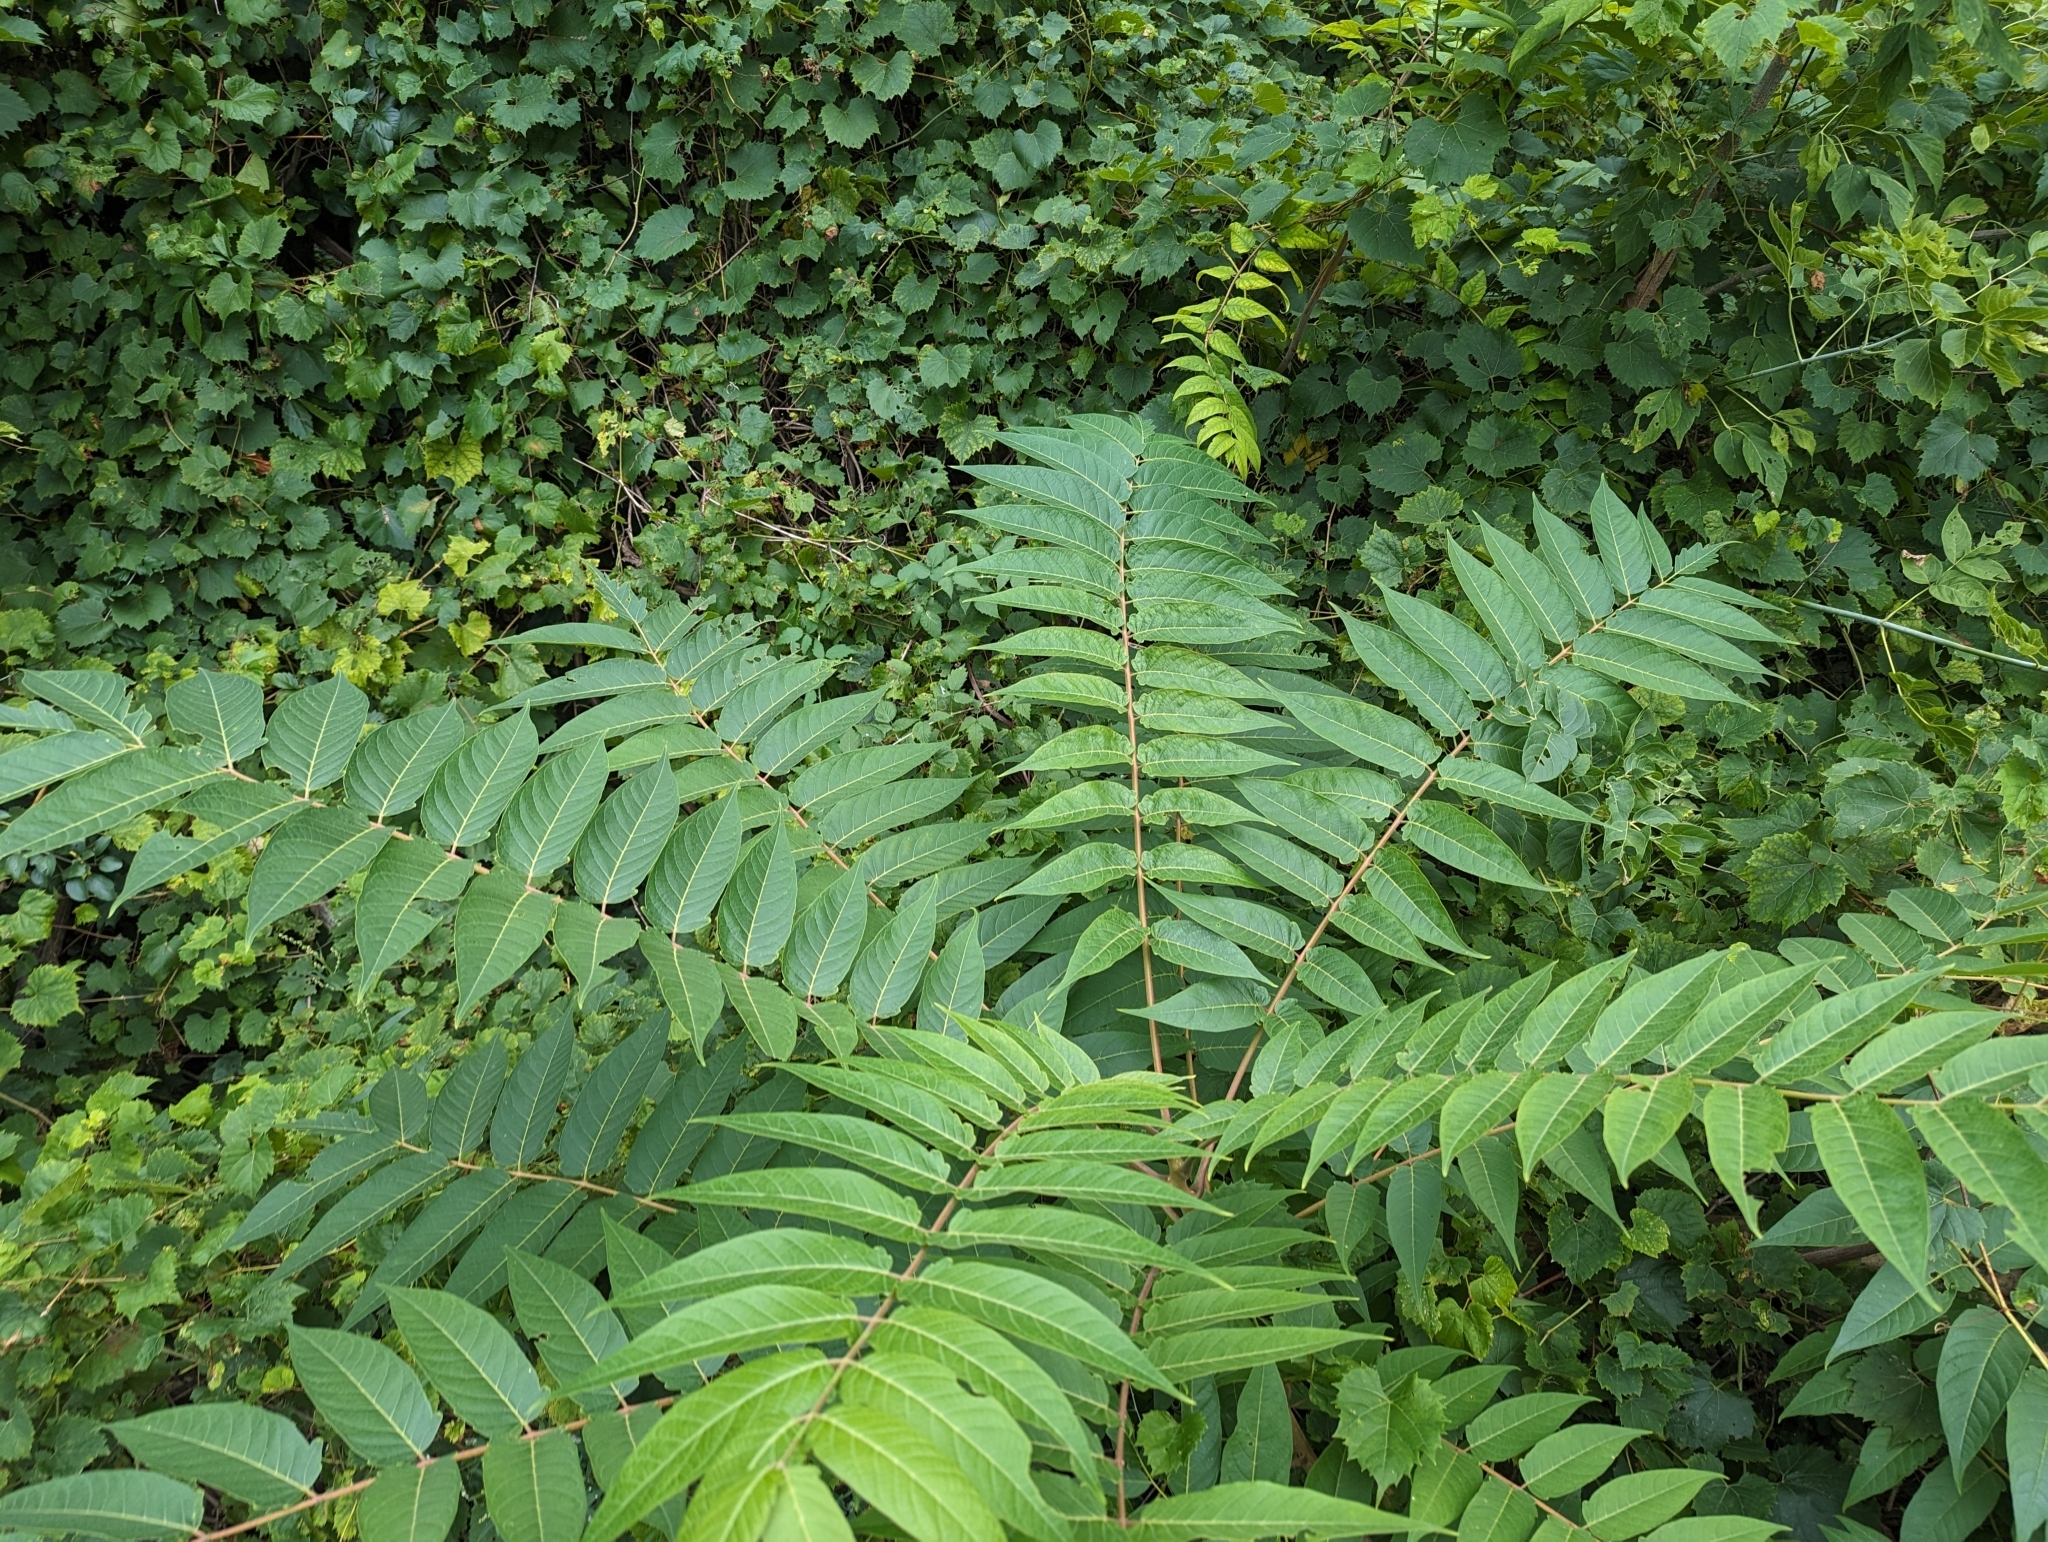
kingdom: Plantae
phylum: Tracheophyta
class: Magnoliopsida
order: Sapindales
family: Simaroubaceae
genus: Ailanthus
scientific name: Ailanthus altissima
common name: Tree-of-heaven
